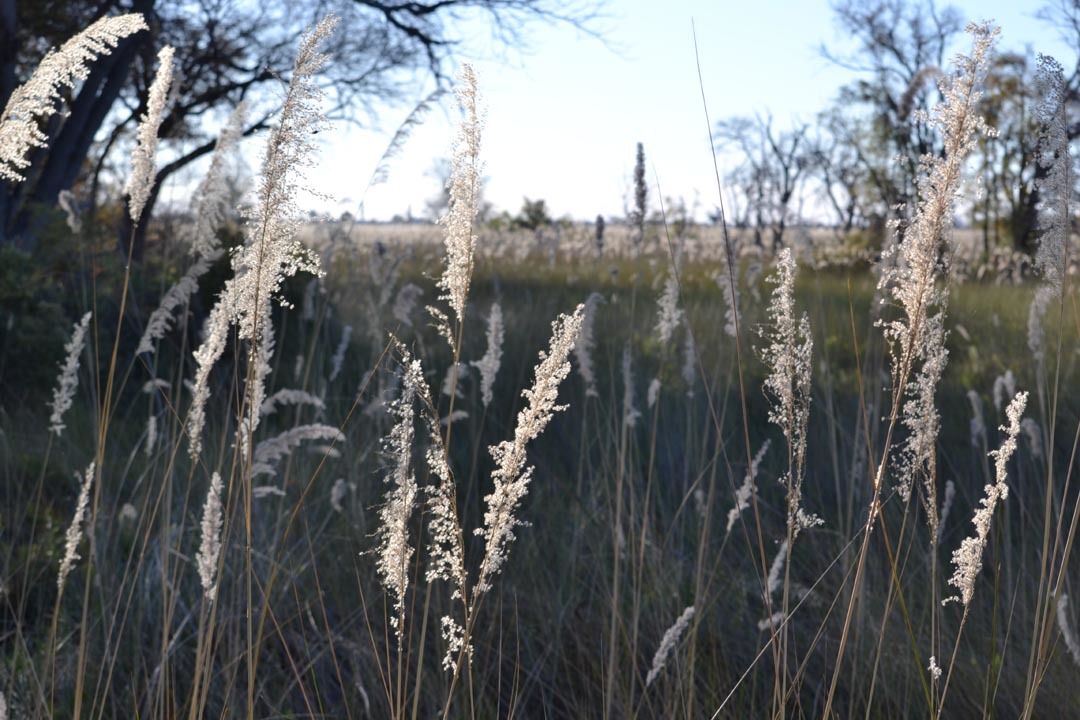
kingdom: Plantae
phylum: Tracheophyta
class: Liliopsida
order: Poales
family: Poaceae
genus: Miscanthidium
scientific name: Miscanthidium junceum
